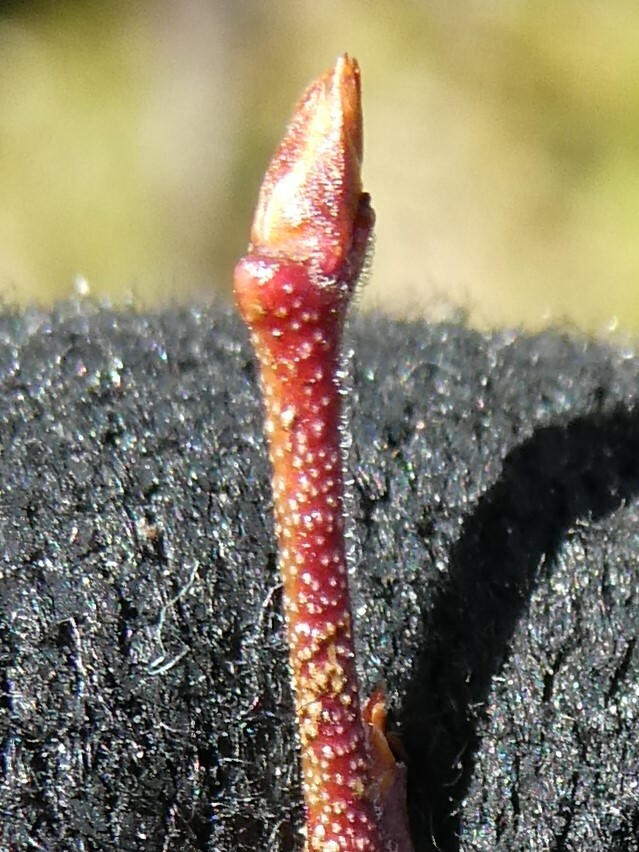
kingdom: Animalia
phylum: Arthropoda
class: Insecta
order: Hymenoptera
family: Pteromalidae
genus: Hemadas
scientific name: Hemadas nubilipennis
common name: Blueberry stem gall wasp
